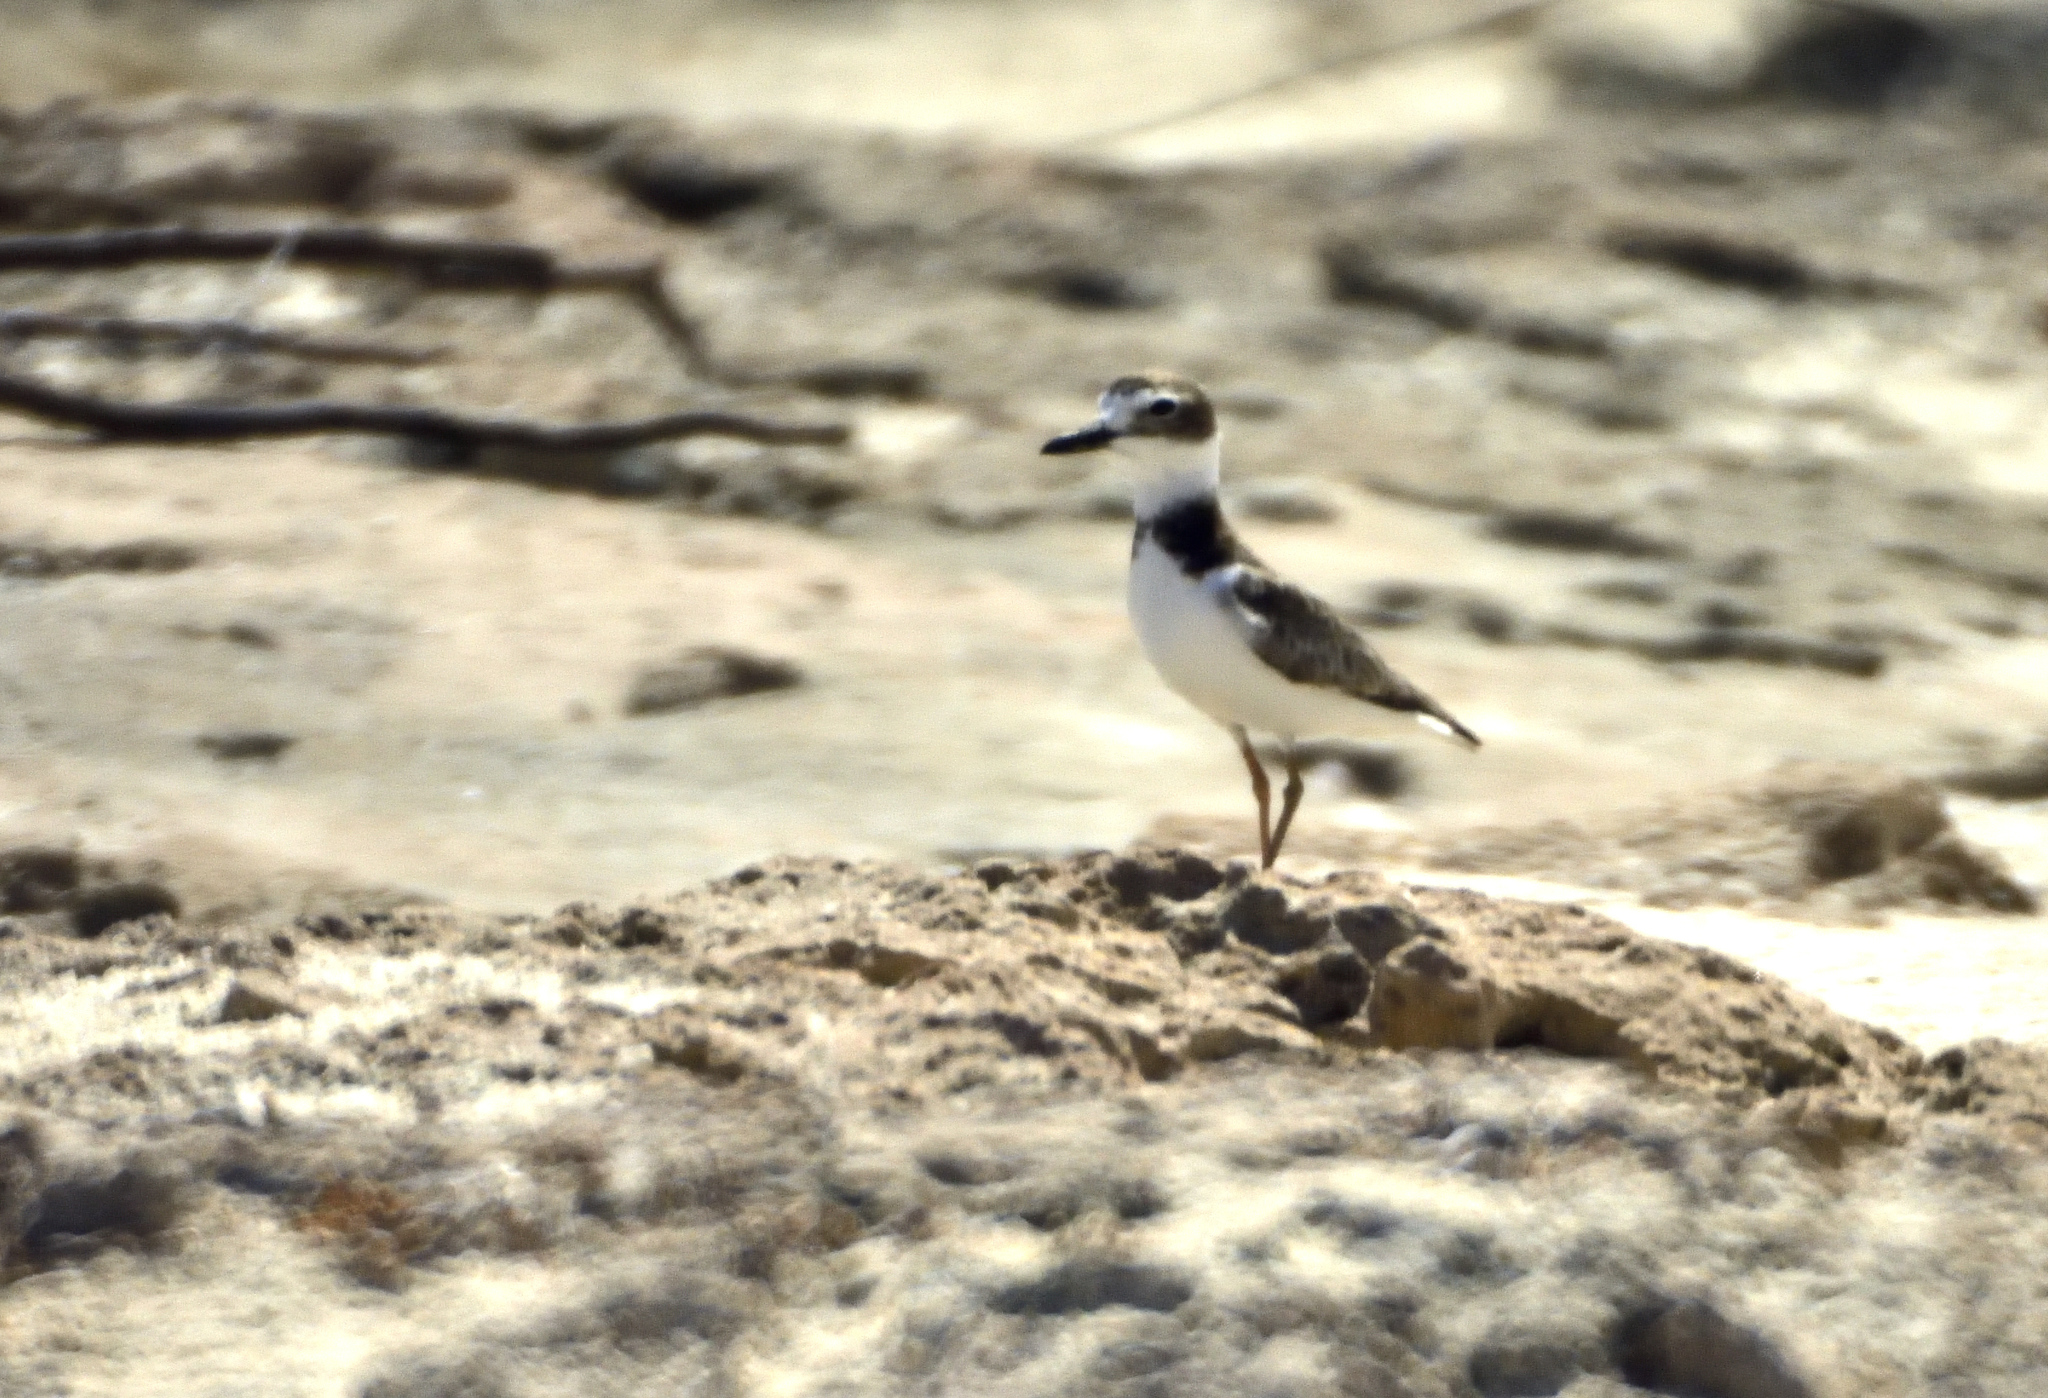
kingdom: Animalia
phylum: Chordata
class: Aves
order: Charadriiformes
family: Charadriidae
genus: Anarhynchus
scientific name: Anarhynchus
